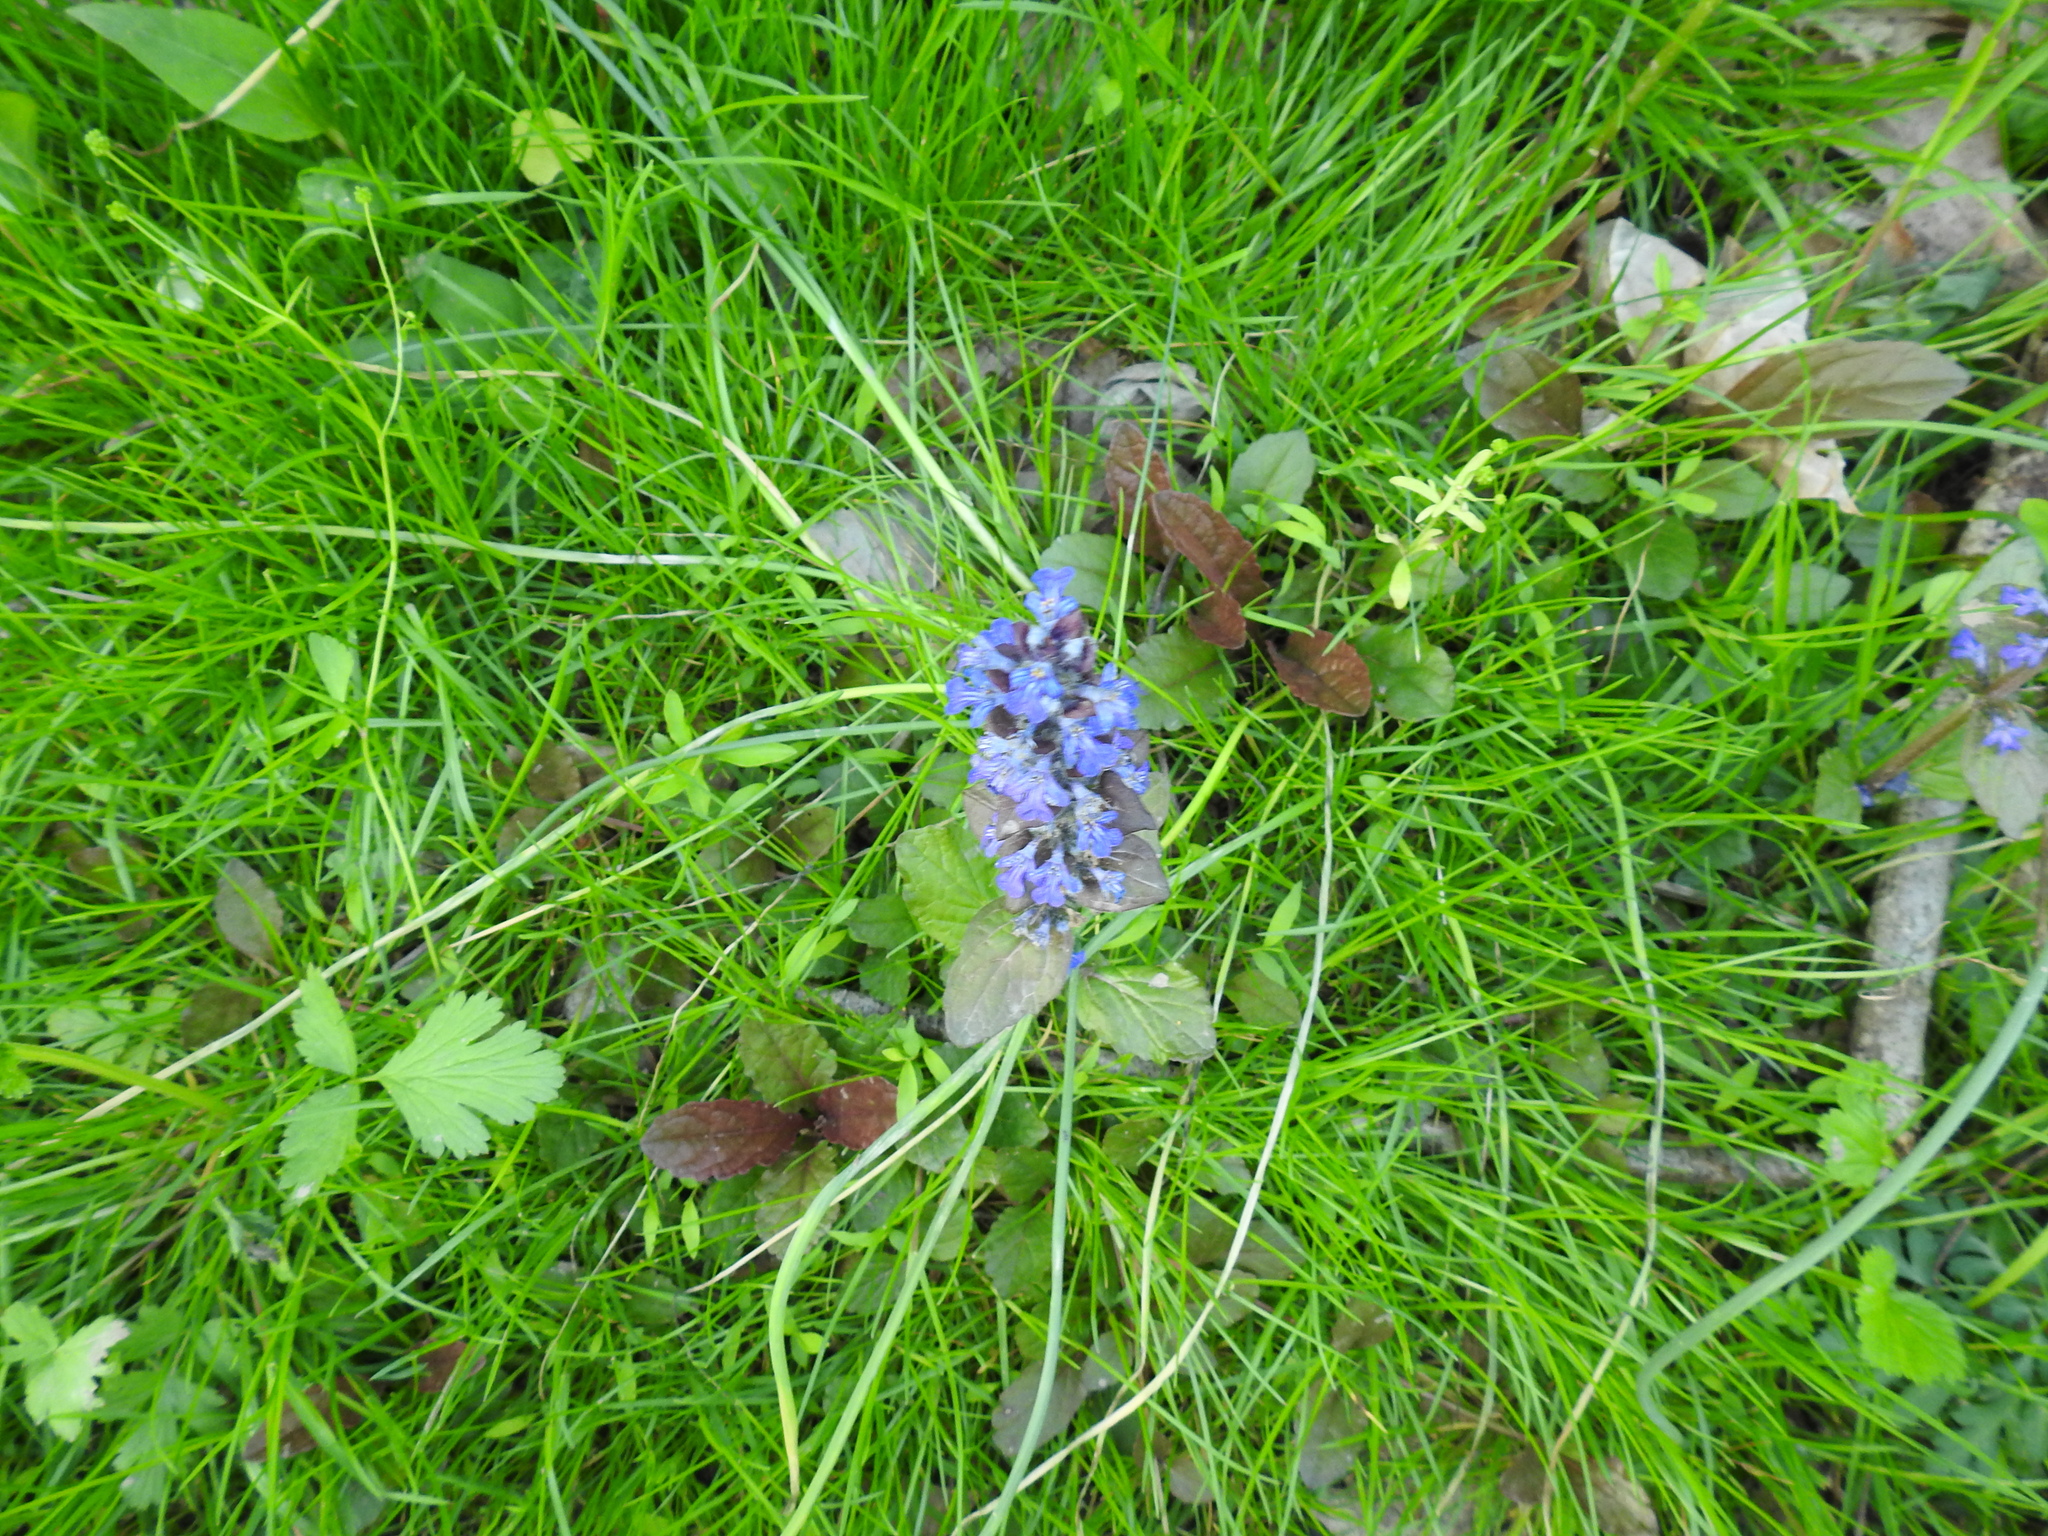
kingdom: Plantae
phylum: Tracheophyta
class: Magnoliopsida
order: Lamiales
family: Lamiaceae
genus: Ajuga
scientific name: Ajuga reptans
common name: Bugle
